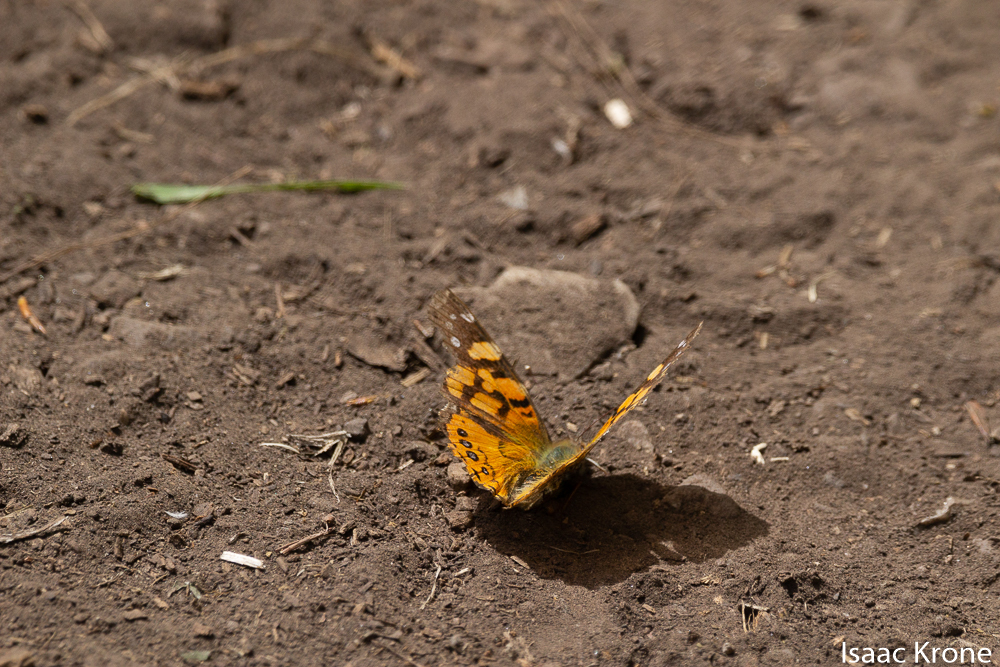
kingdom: Animalia
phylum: Arthropoda
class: Insecta
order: Lepidoptera
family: Nymphalidae
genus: Vanessa
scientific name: Vanessa annabella
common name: West coast lady
